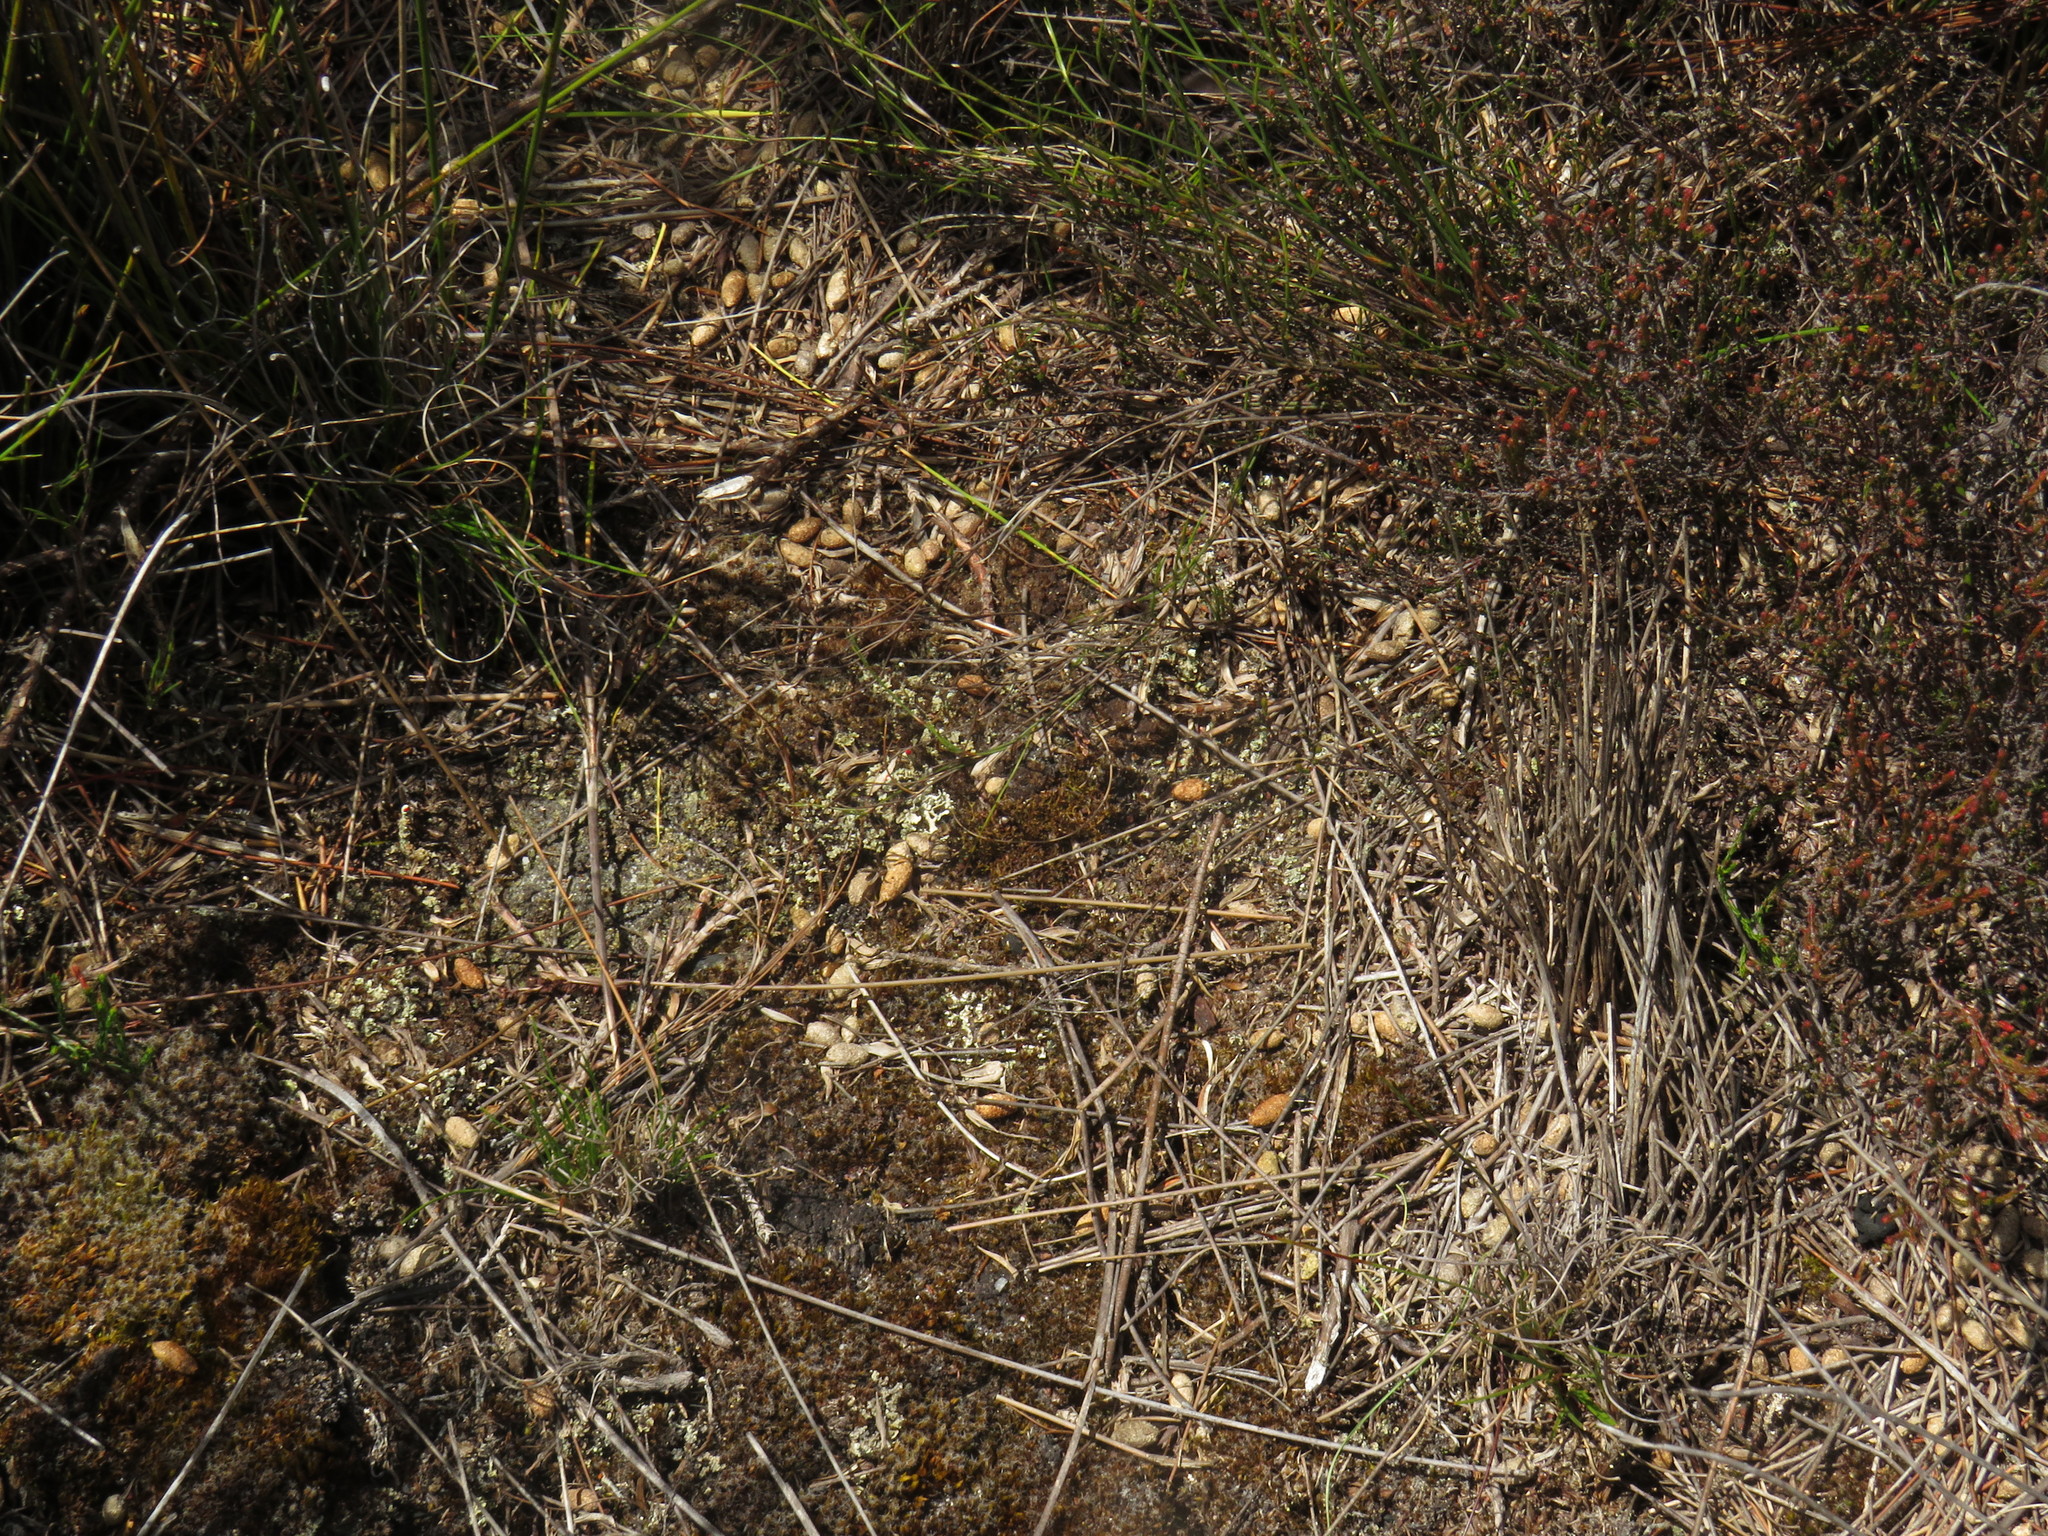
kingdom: Animalia
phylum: Chordata
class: Mammalia
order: Rodentia
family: Muridae
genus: Otomys
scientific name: Otomys irroratus
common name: Southern african vlei rat
